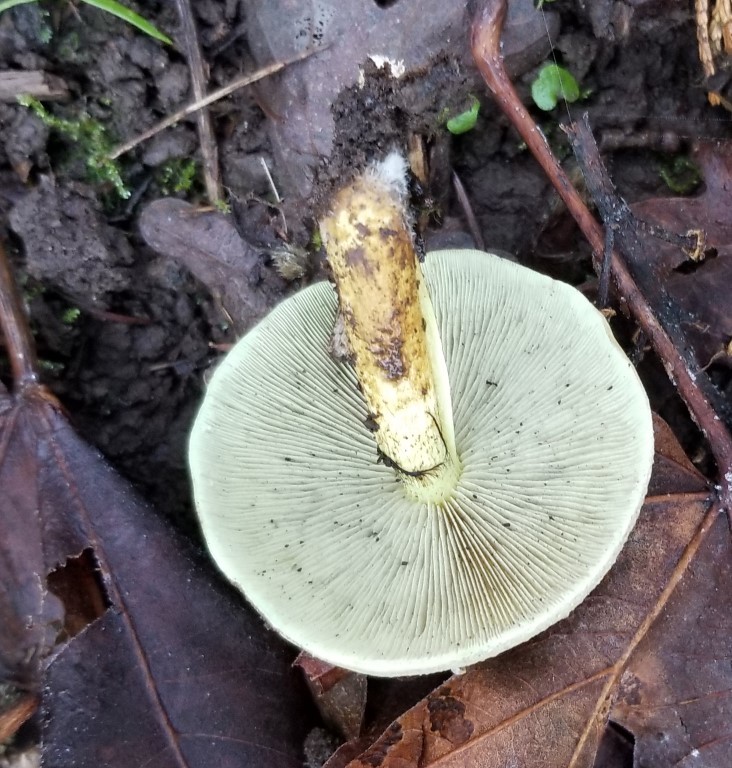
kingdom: Fungi
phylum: Basidiomycota
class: Agaricomycetes
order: Agaricales
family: Strophariaceae
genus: Hypholoma
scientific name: Hypholoma fasciculare
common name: Sulphur tuft
